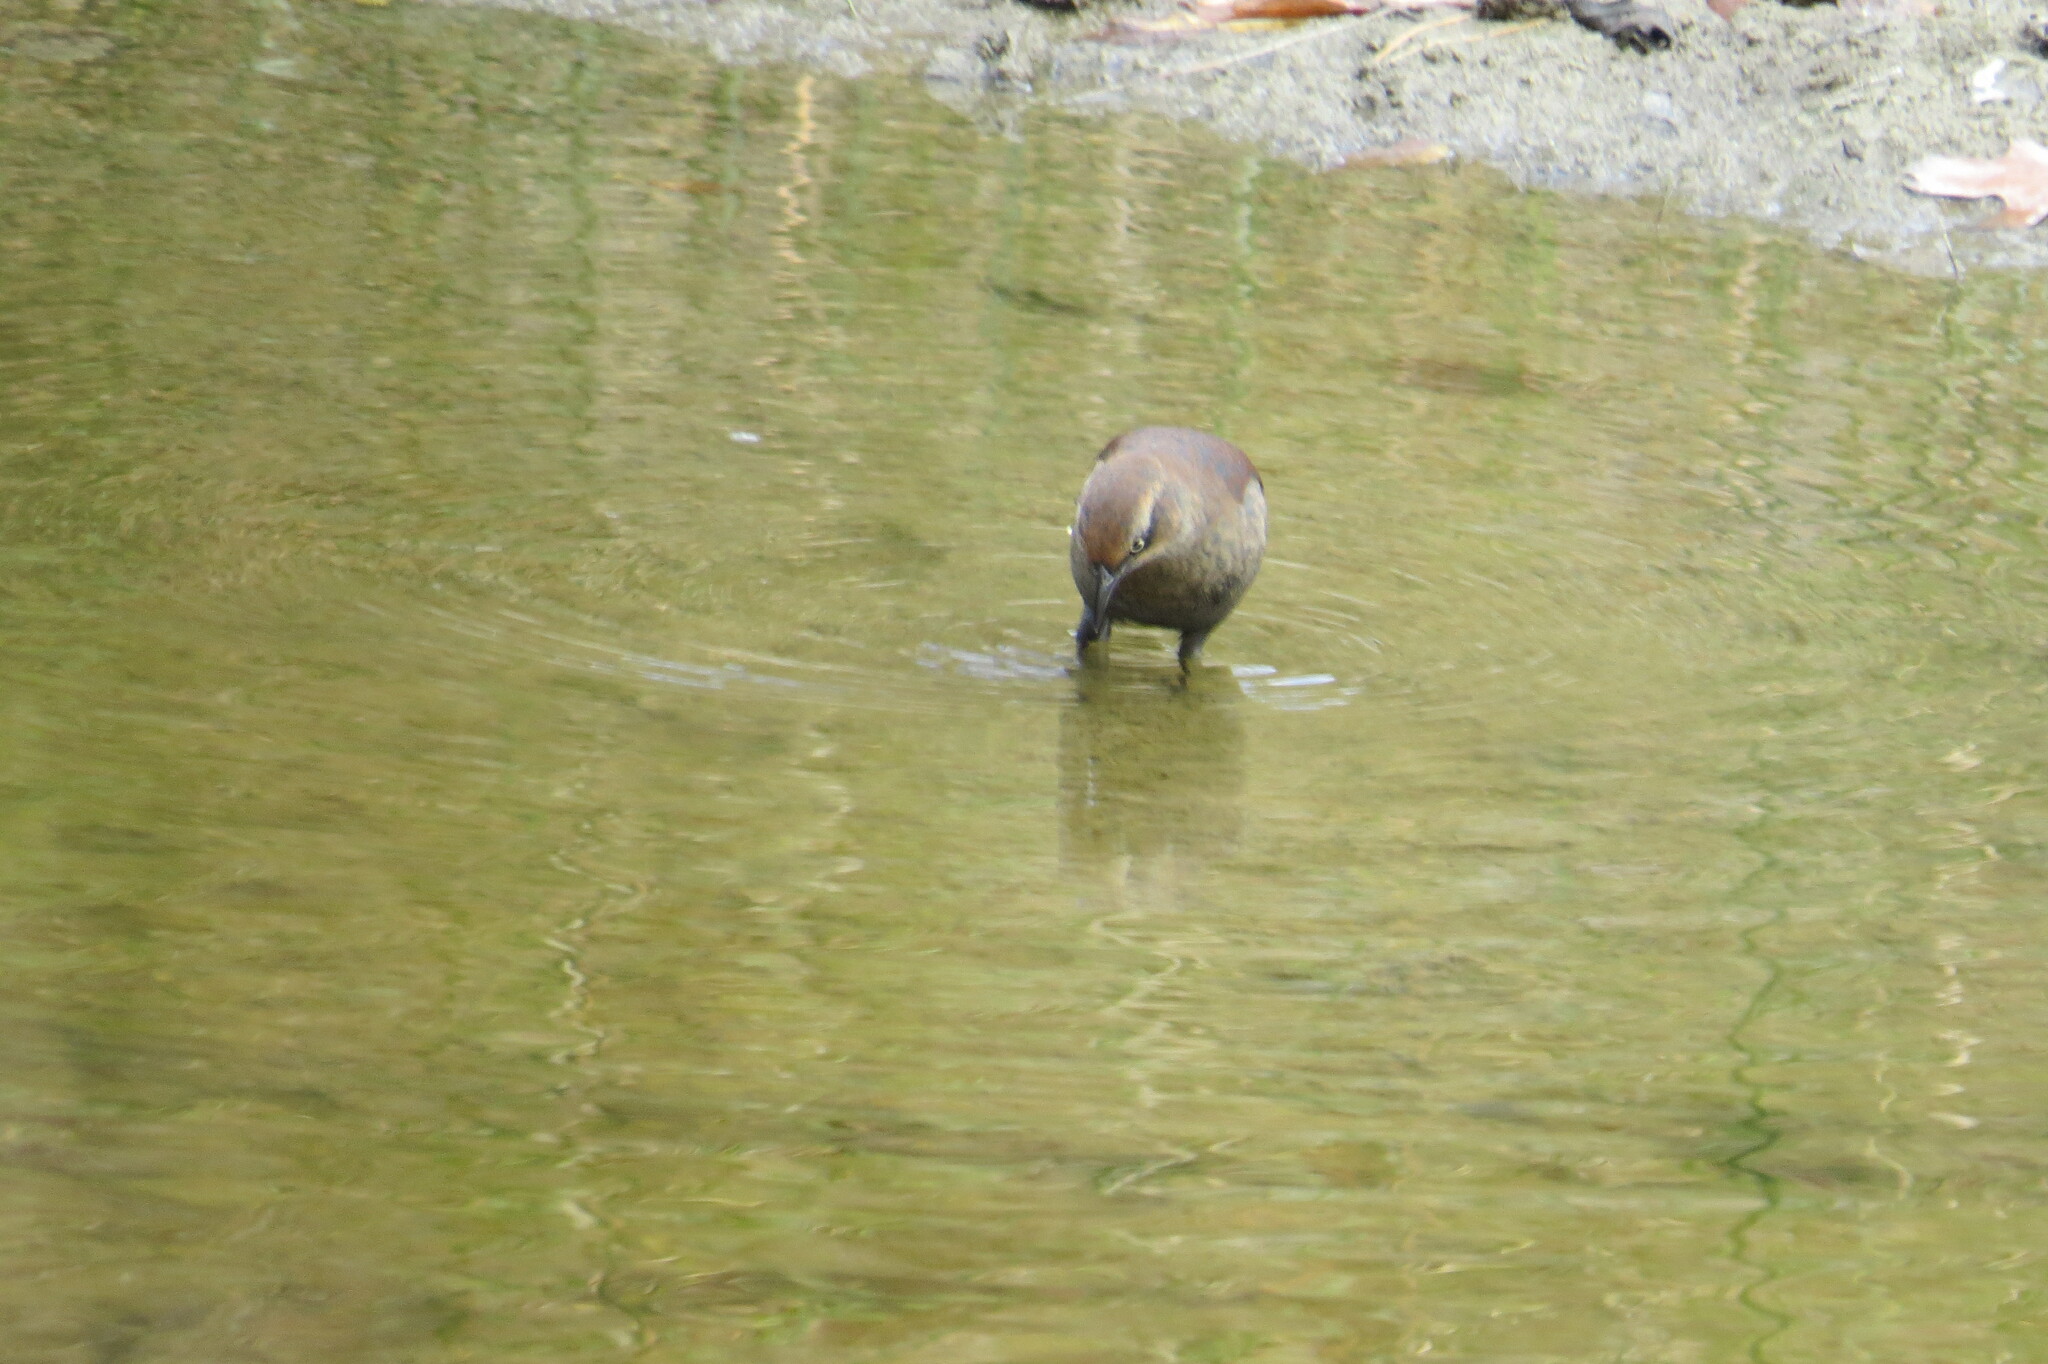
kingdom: Animalia
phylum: Chordata
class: Aves
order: Passeriformes
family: Icteridae
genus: Euphagus
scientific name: Euphagus carolinus
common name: Rusty blackbird
